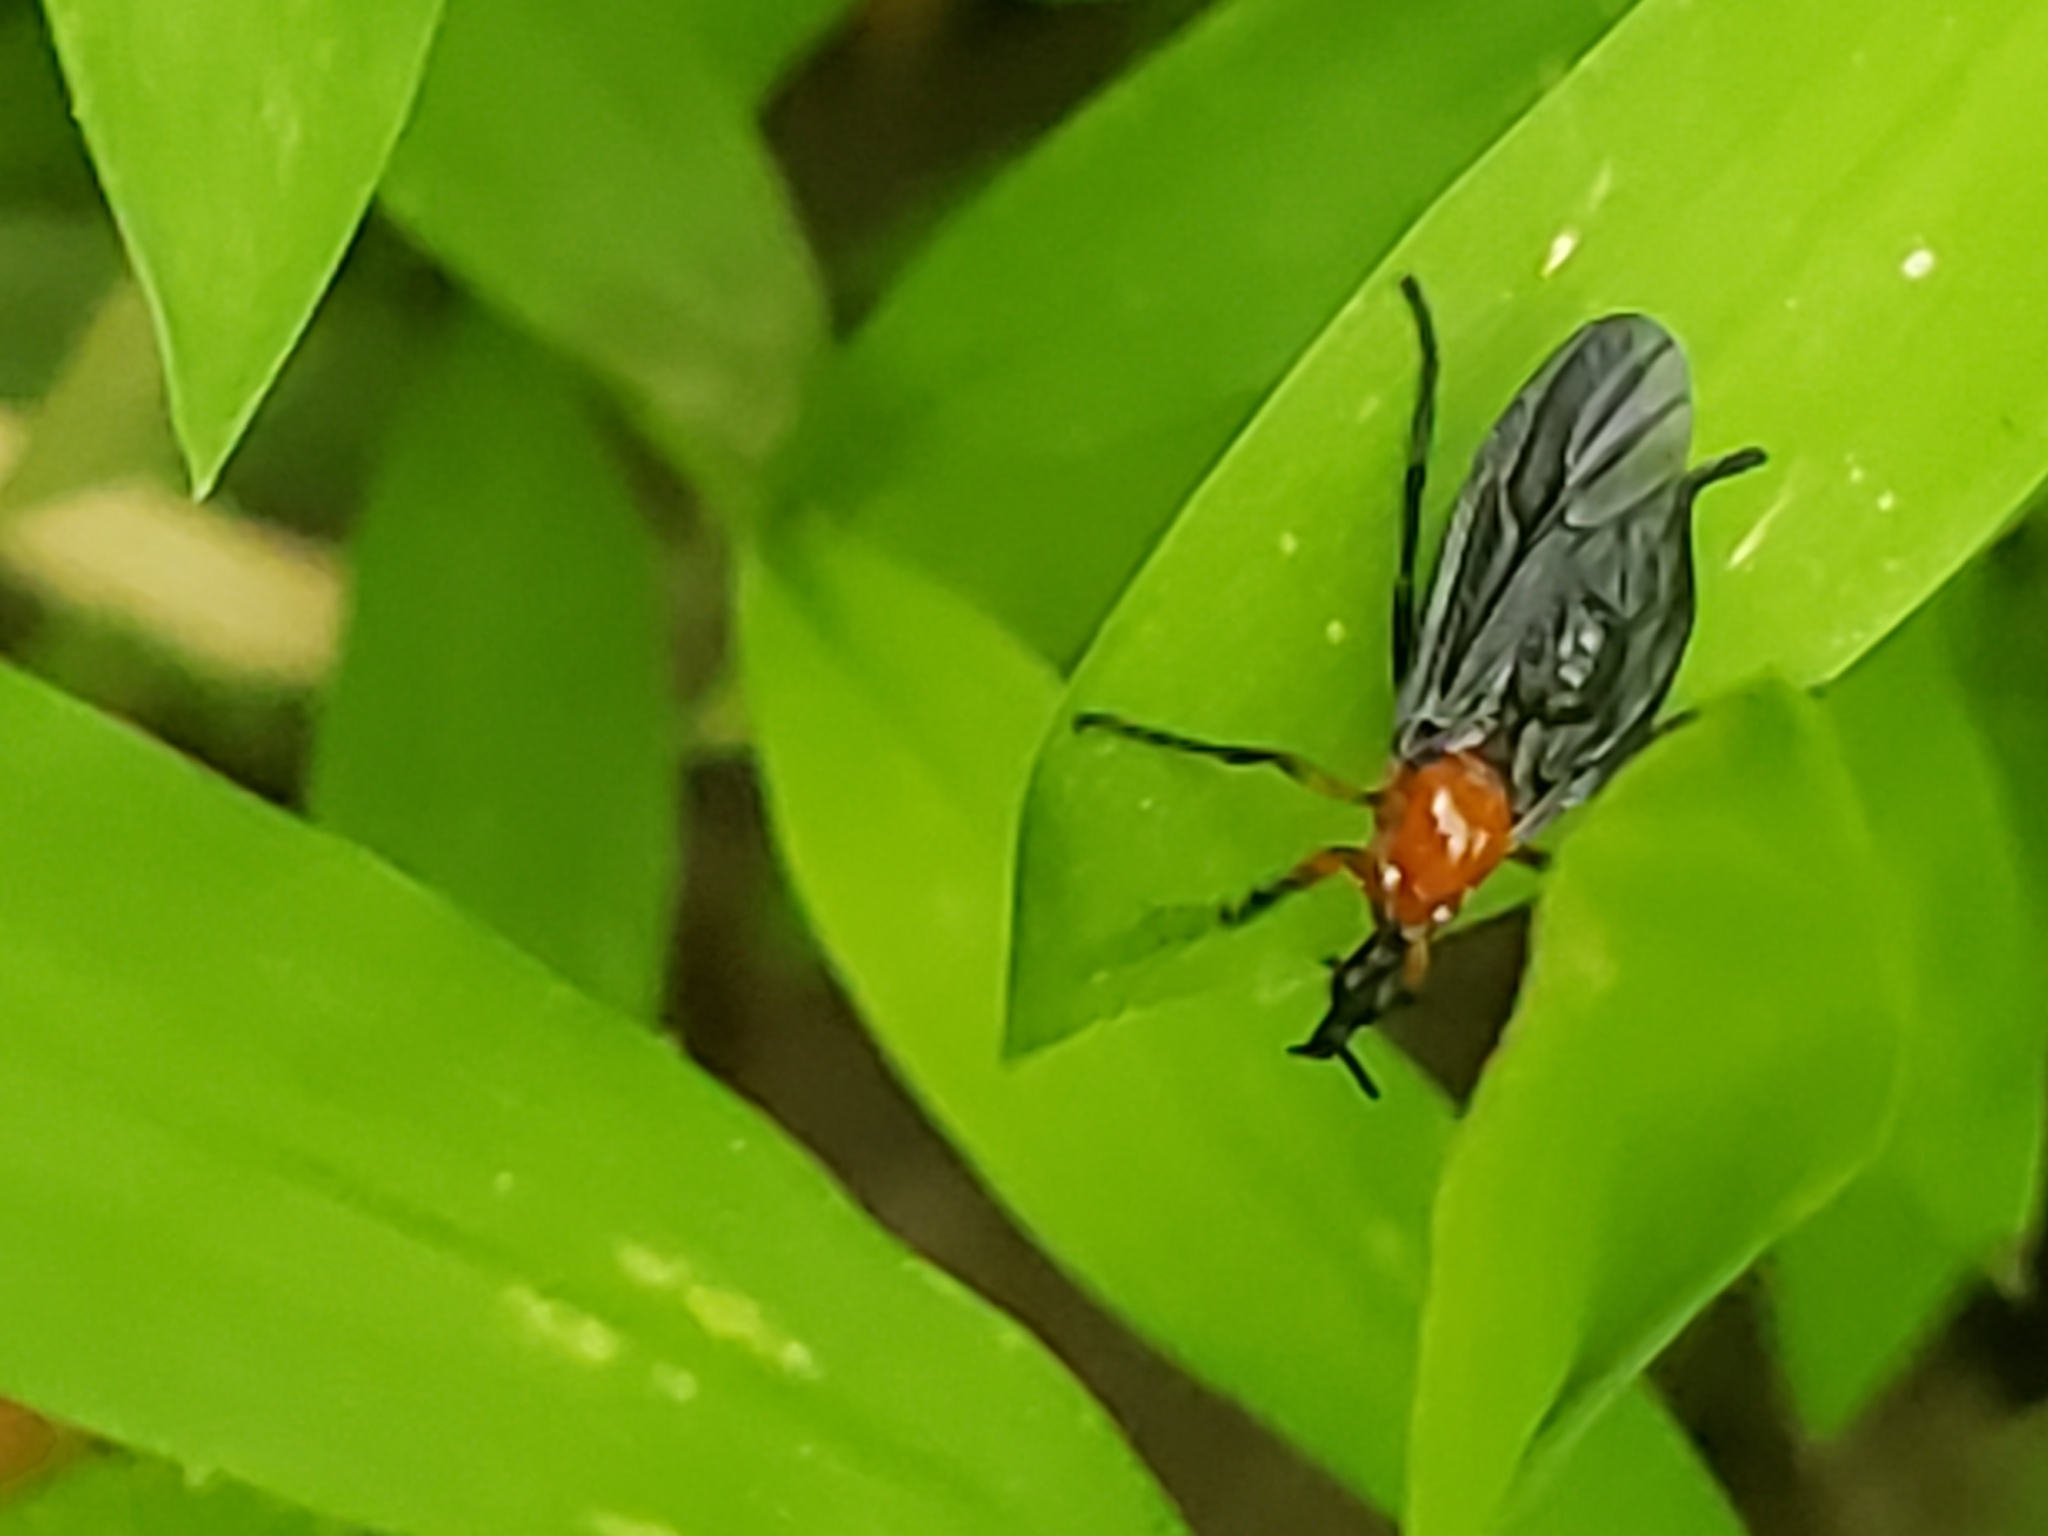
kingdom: Animalia
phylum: Arthropoda
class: Insecta
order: Diptera
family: Bibionidae
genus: Dilophus
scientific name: Dilophus spinipes
